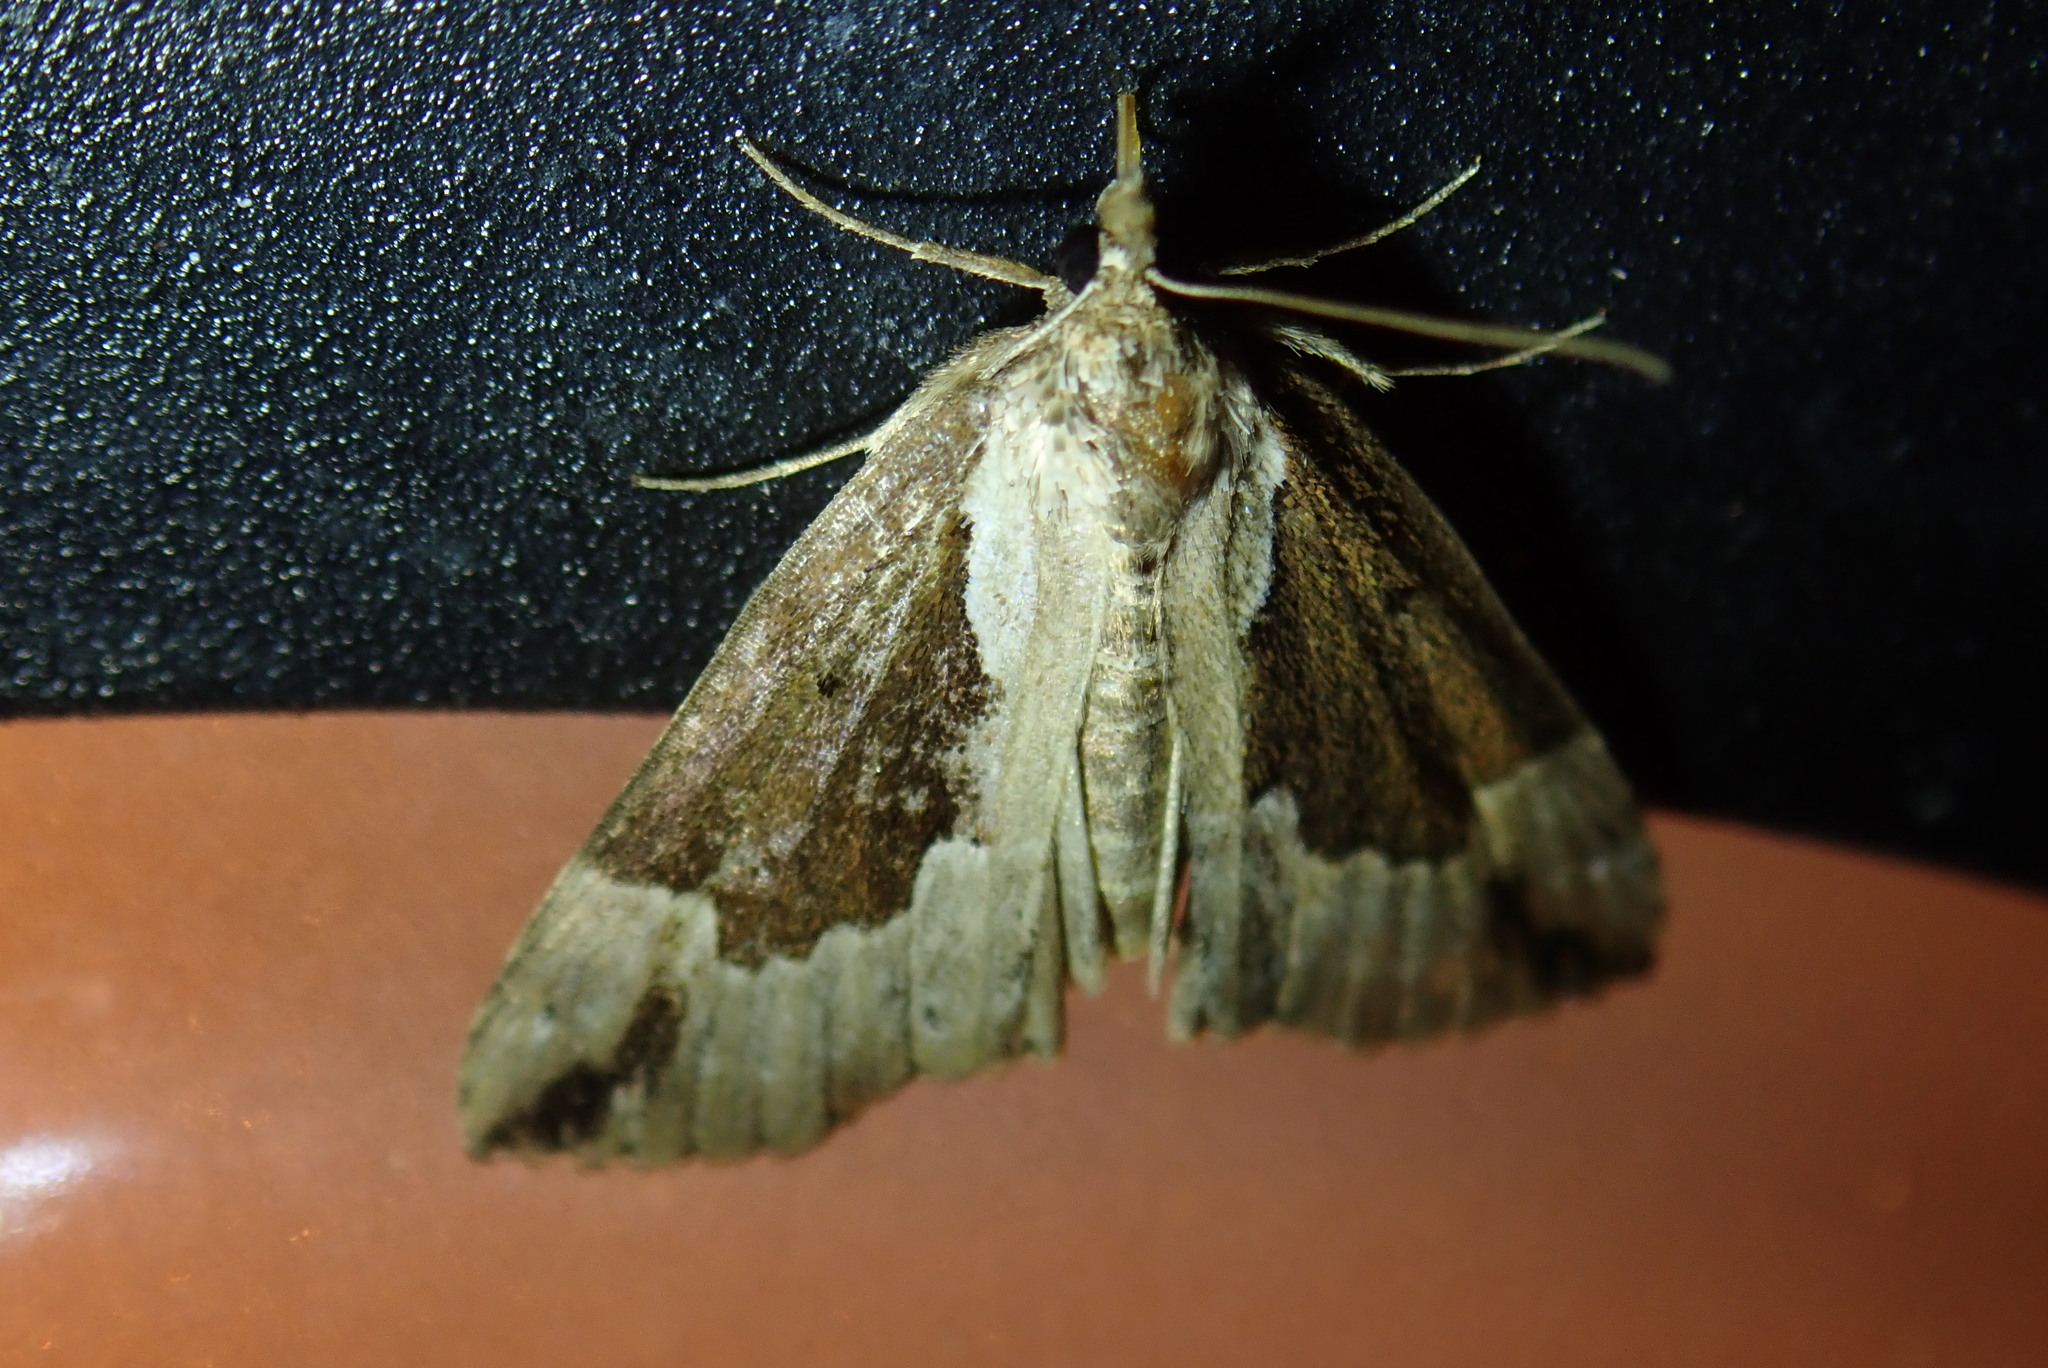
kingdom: Animalia
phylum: Arthropoda
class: Insecta
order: Lepidoptera
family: Erebidae
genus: Hypena
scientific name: Hypena baltimoralis
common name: Baltimore snout
